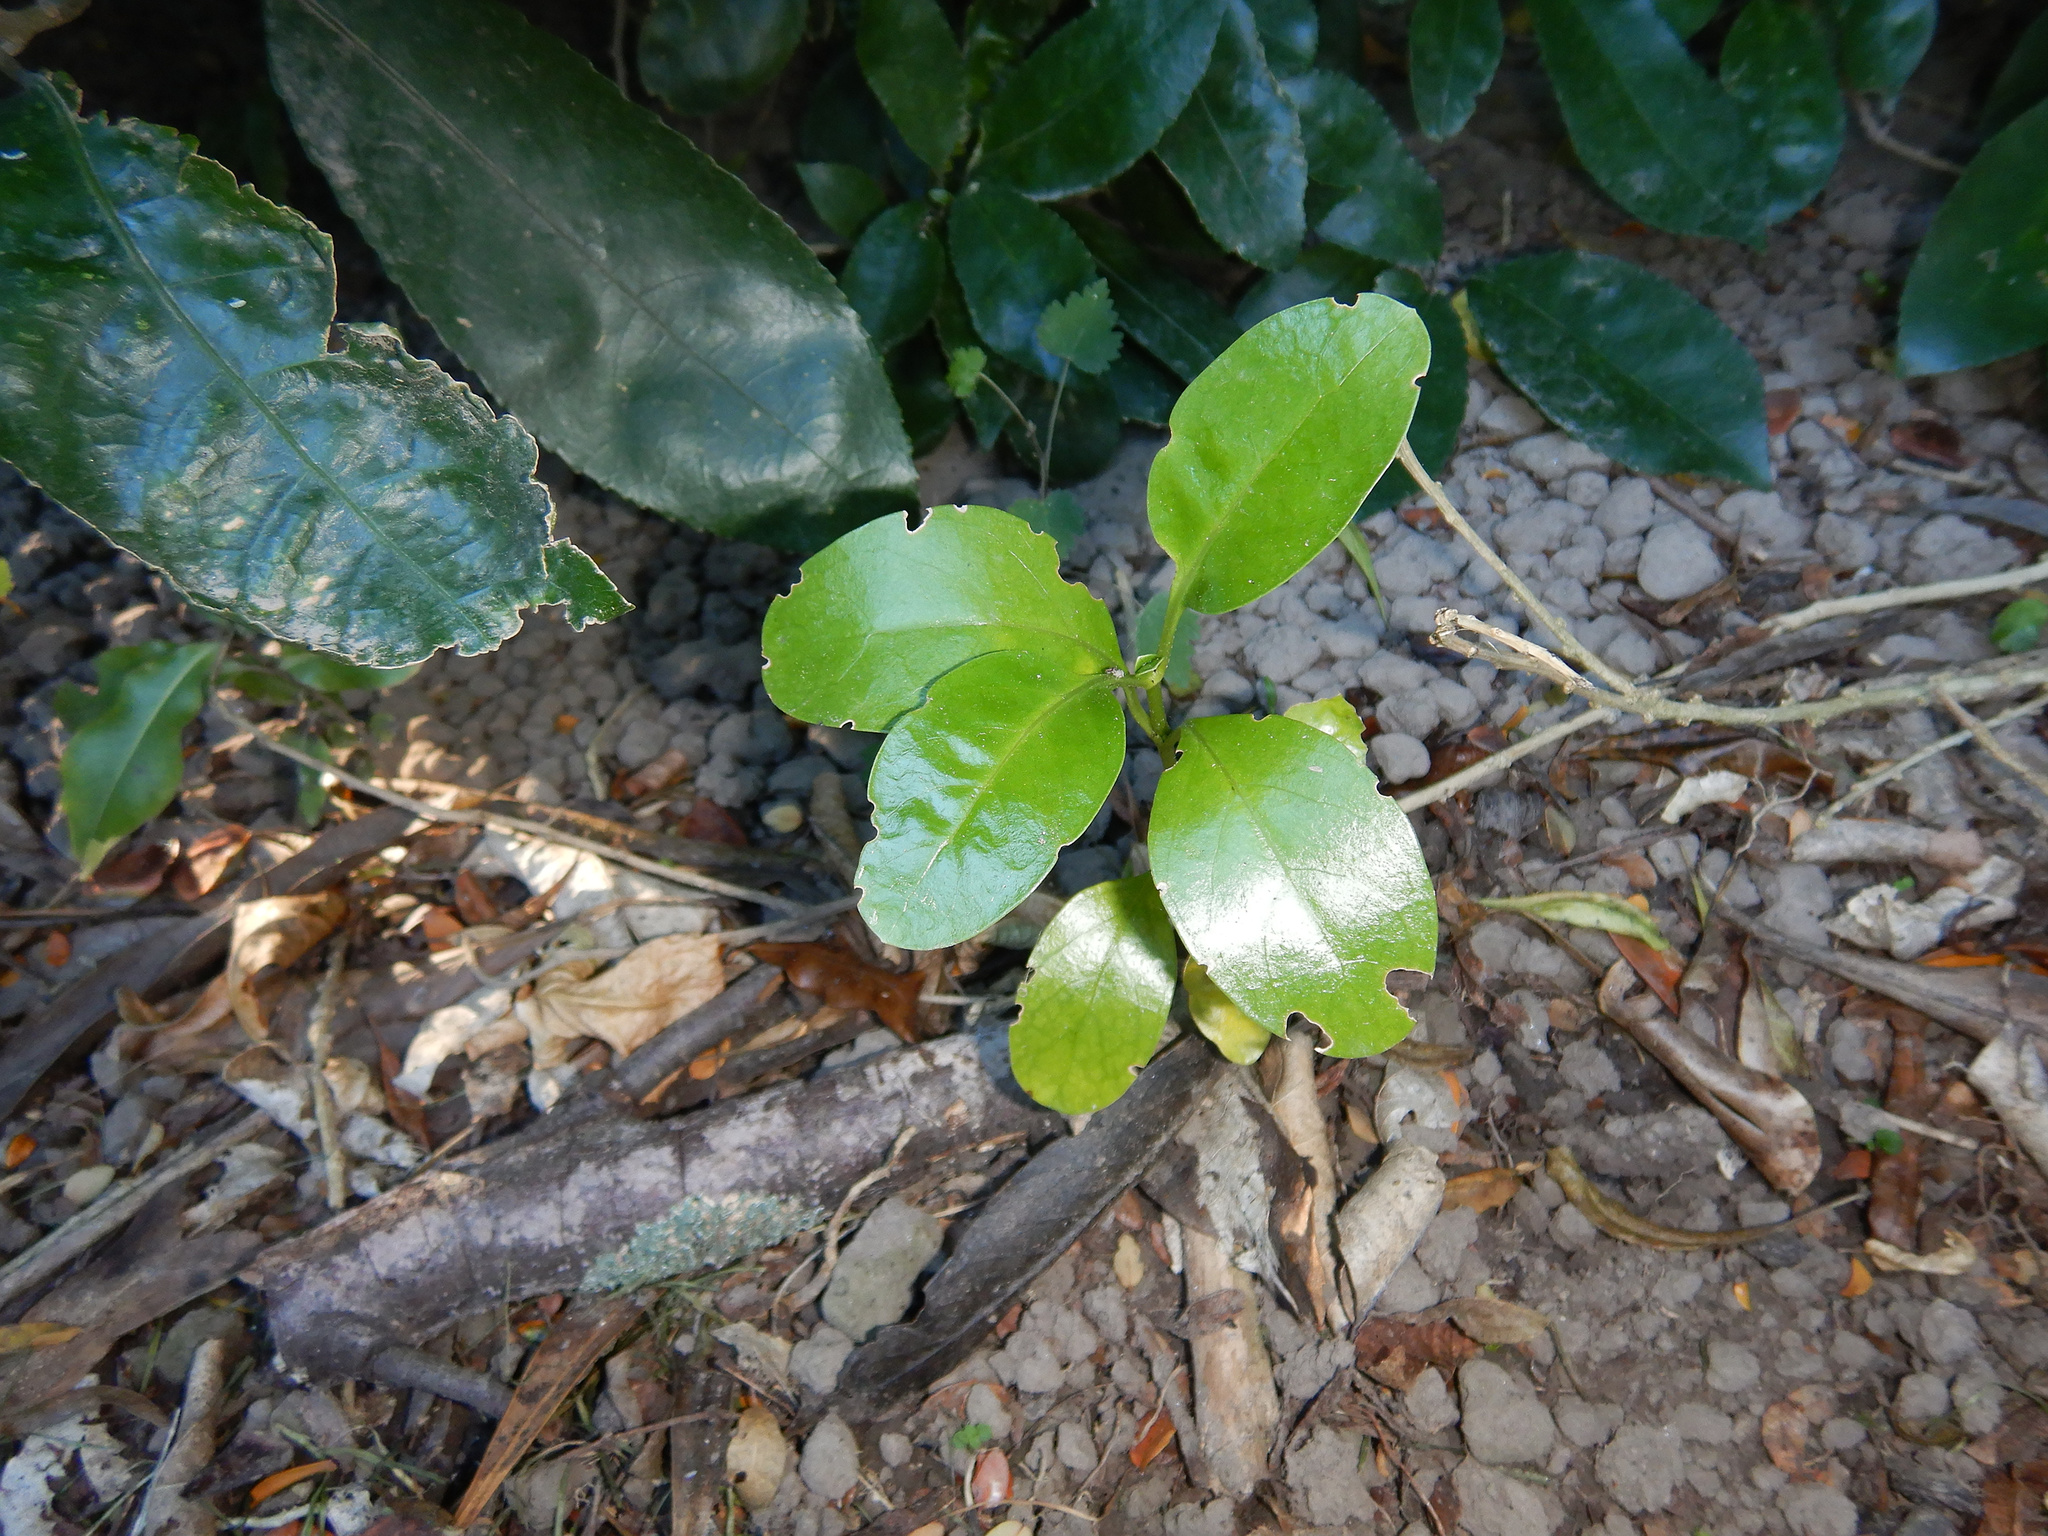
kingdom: Plantae
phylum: Tracheophyta
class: Magnoliopsida
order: Gentianales
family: Rubiaceae
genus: Coprosma
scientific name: Coprosma repens
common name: Tree bedstraw
